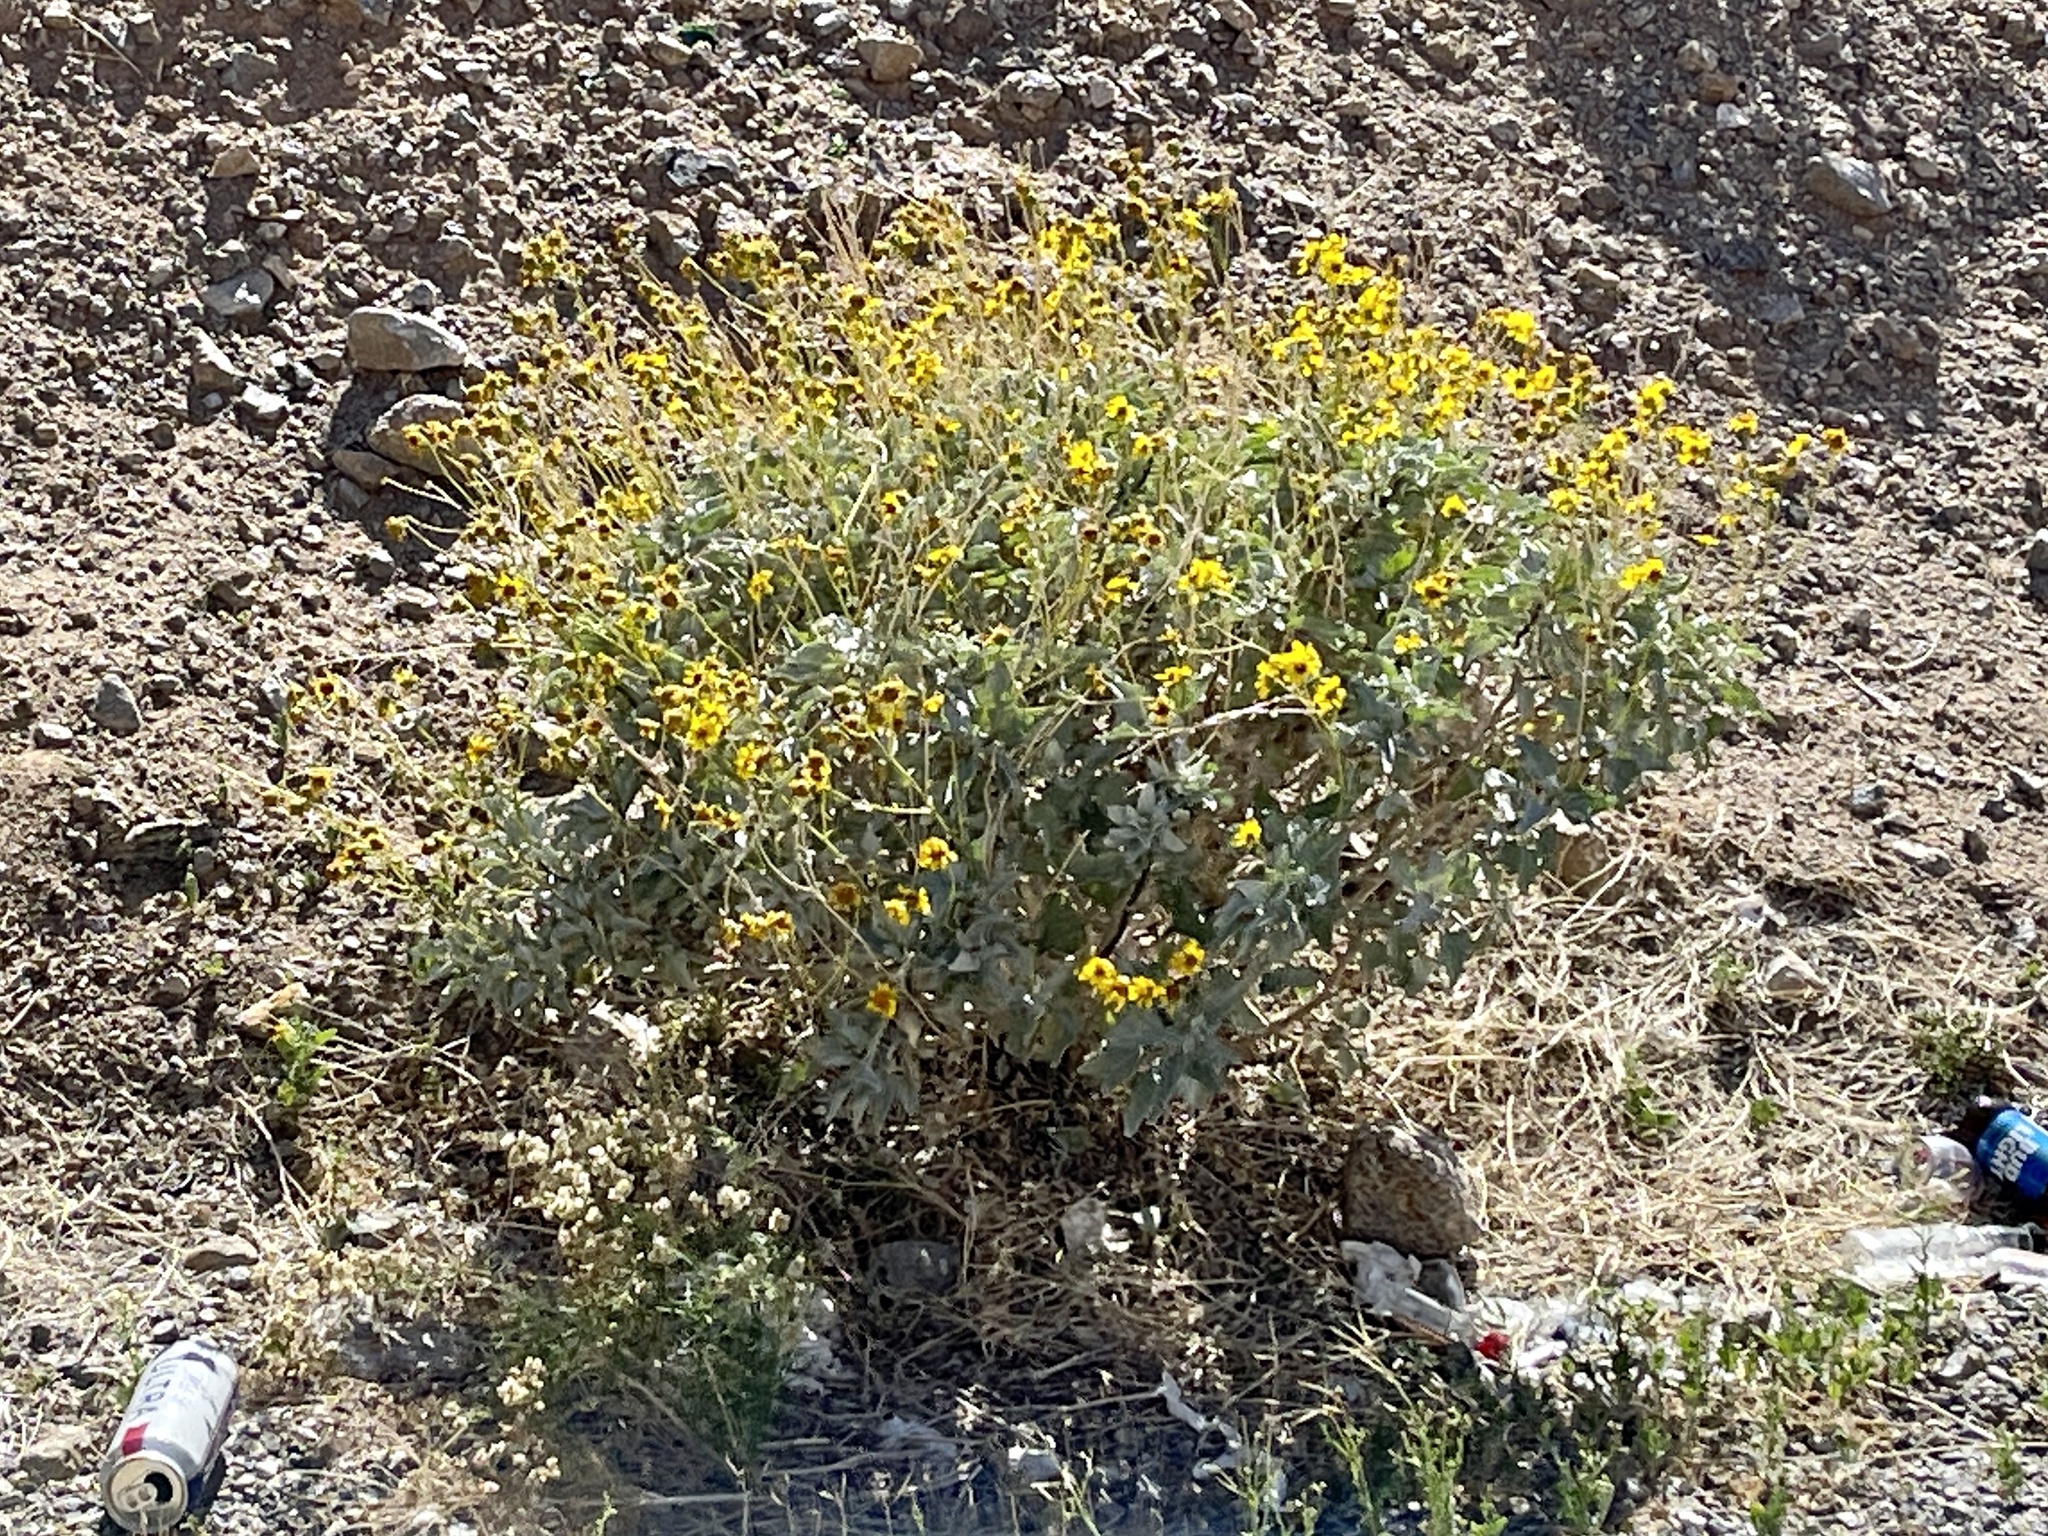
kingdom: Plantae
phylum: Tracheophyta
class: Magnoliopsida
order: Asterales
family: Asteraceae
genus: Encelia
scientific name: Encelia farinosa
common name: Brittlebush
